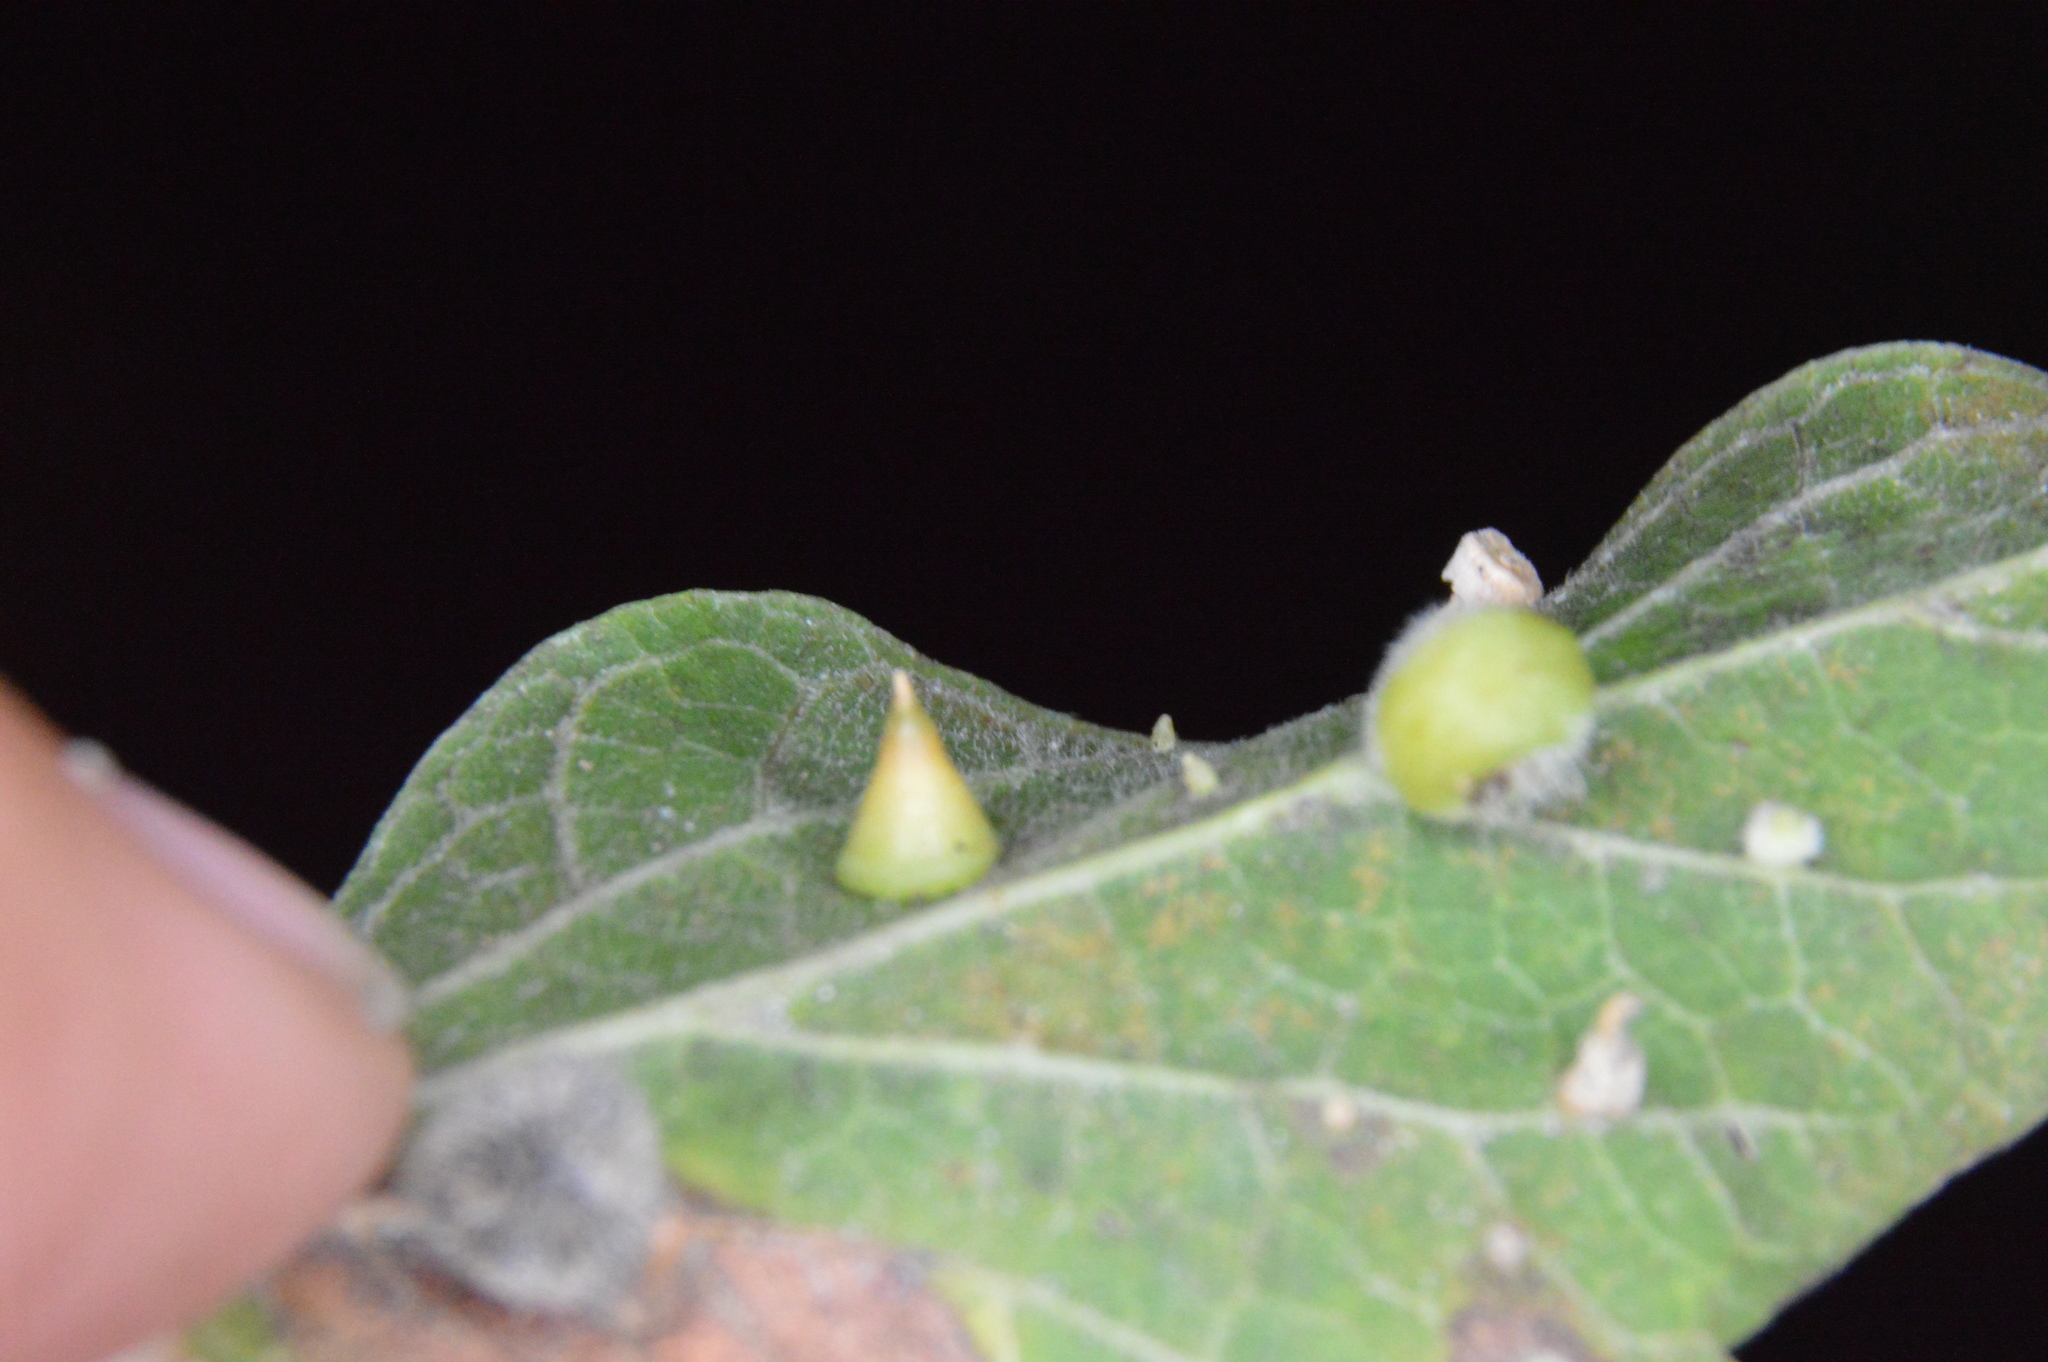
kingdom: Animalia
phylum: Arthropoda
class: Insecta
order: Diptera
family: Cecidomyiidae
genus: Celticecis
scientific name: Celticecis spiniformis
